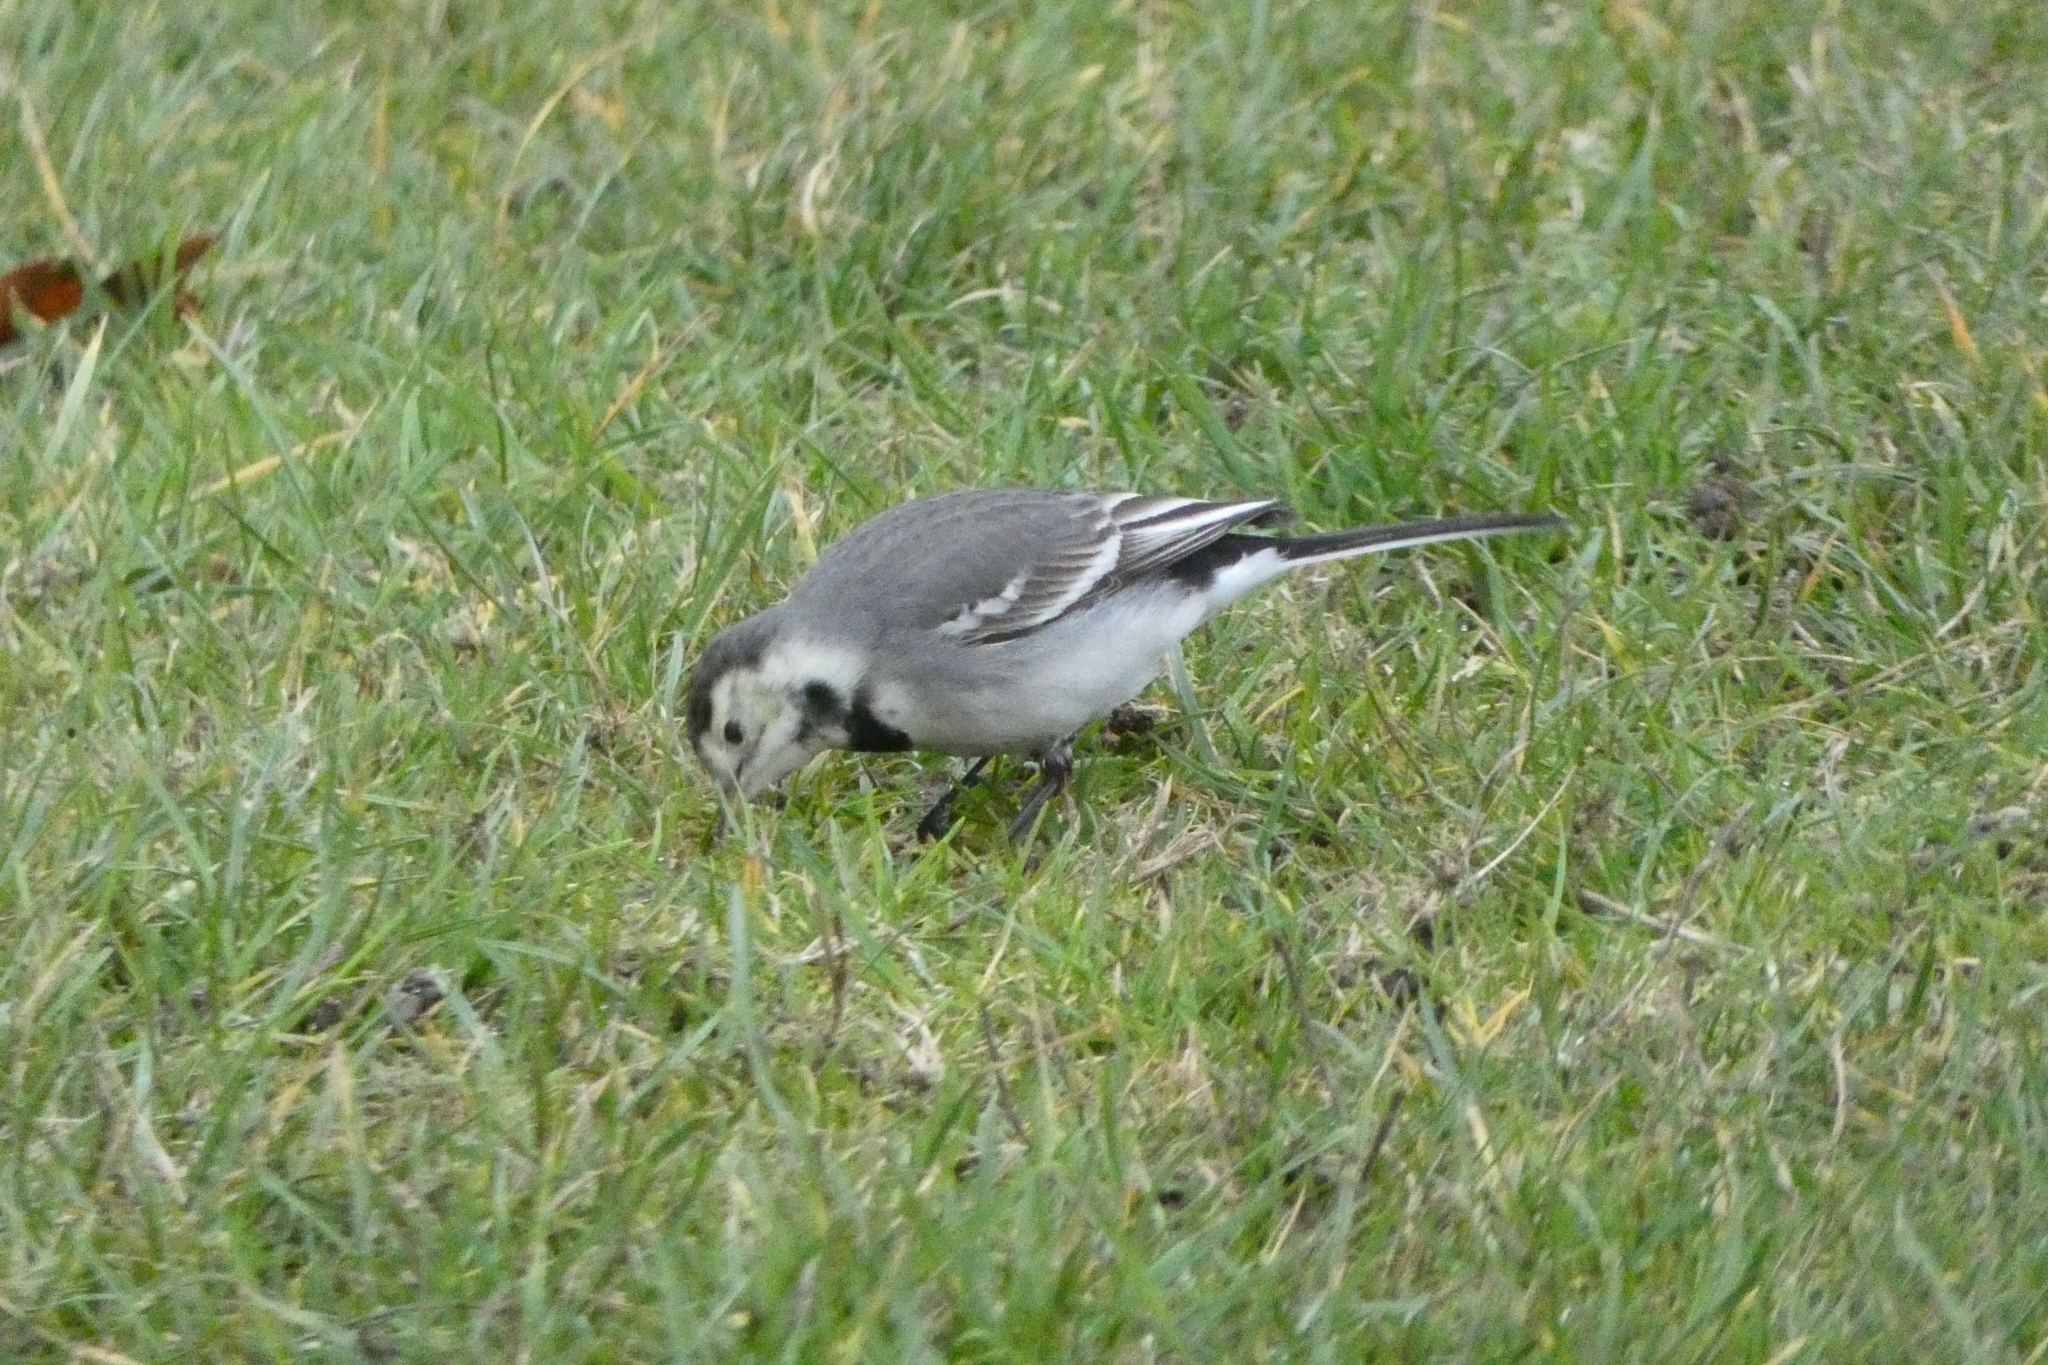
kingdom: Animalia
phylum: Chordata
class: Aves
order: Passeriformes
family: Motacillidae
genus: Motacilla
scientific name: Motacilla alba
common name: White wagtail
